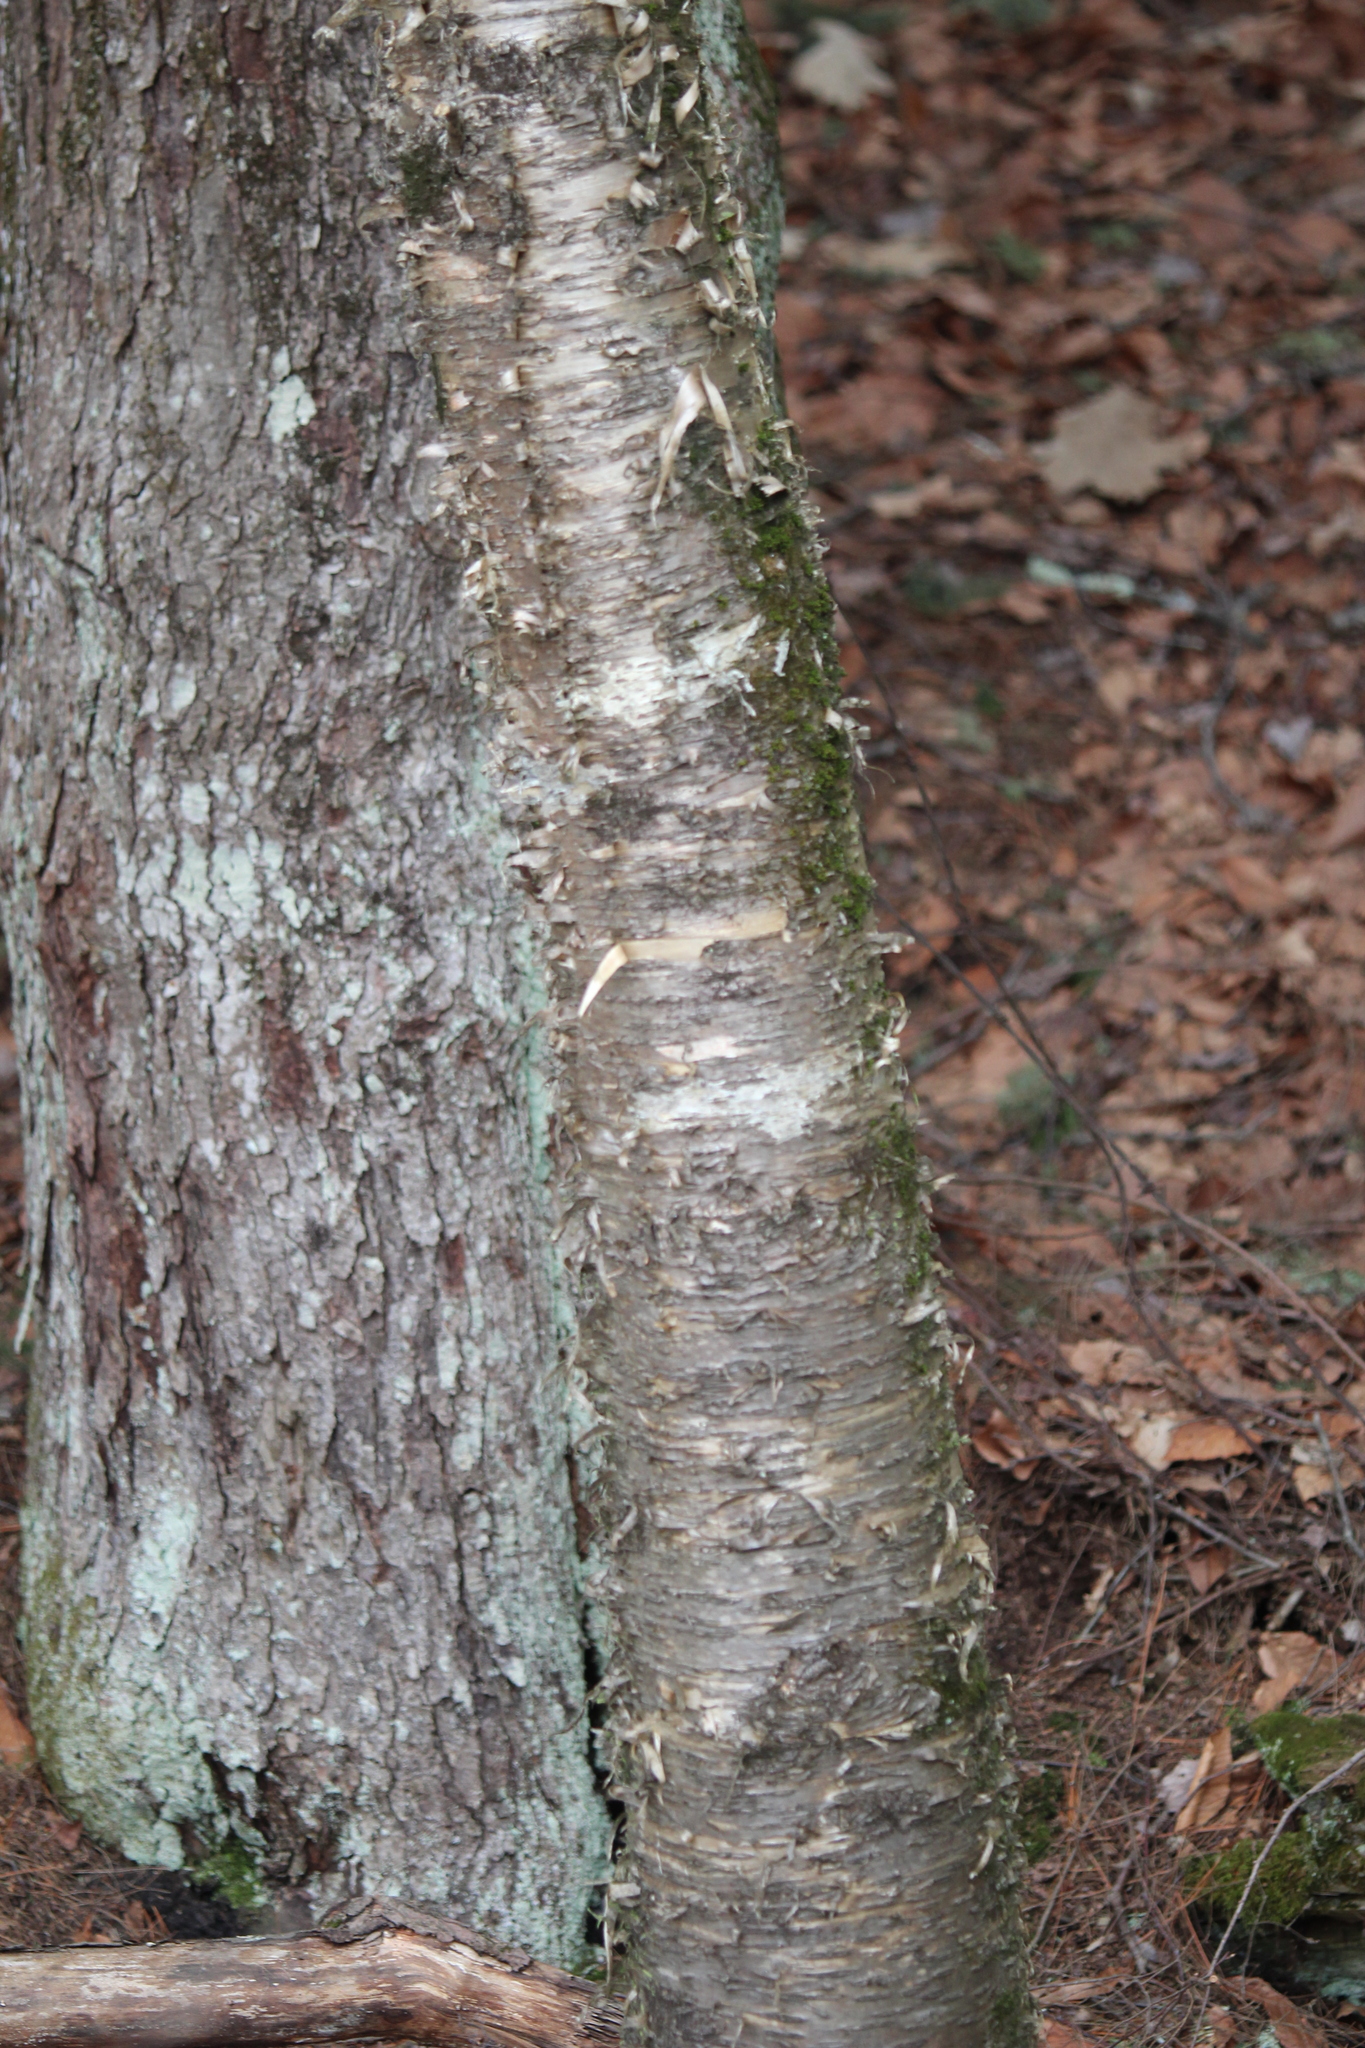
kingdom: Plantae
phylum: Tracheophyta
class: Magnoliopsida
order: Fagales
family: Betulaceae
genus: Betula
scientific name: Betula alleghaniensis
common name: Yellow birch
